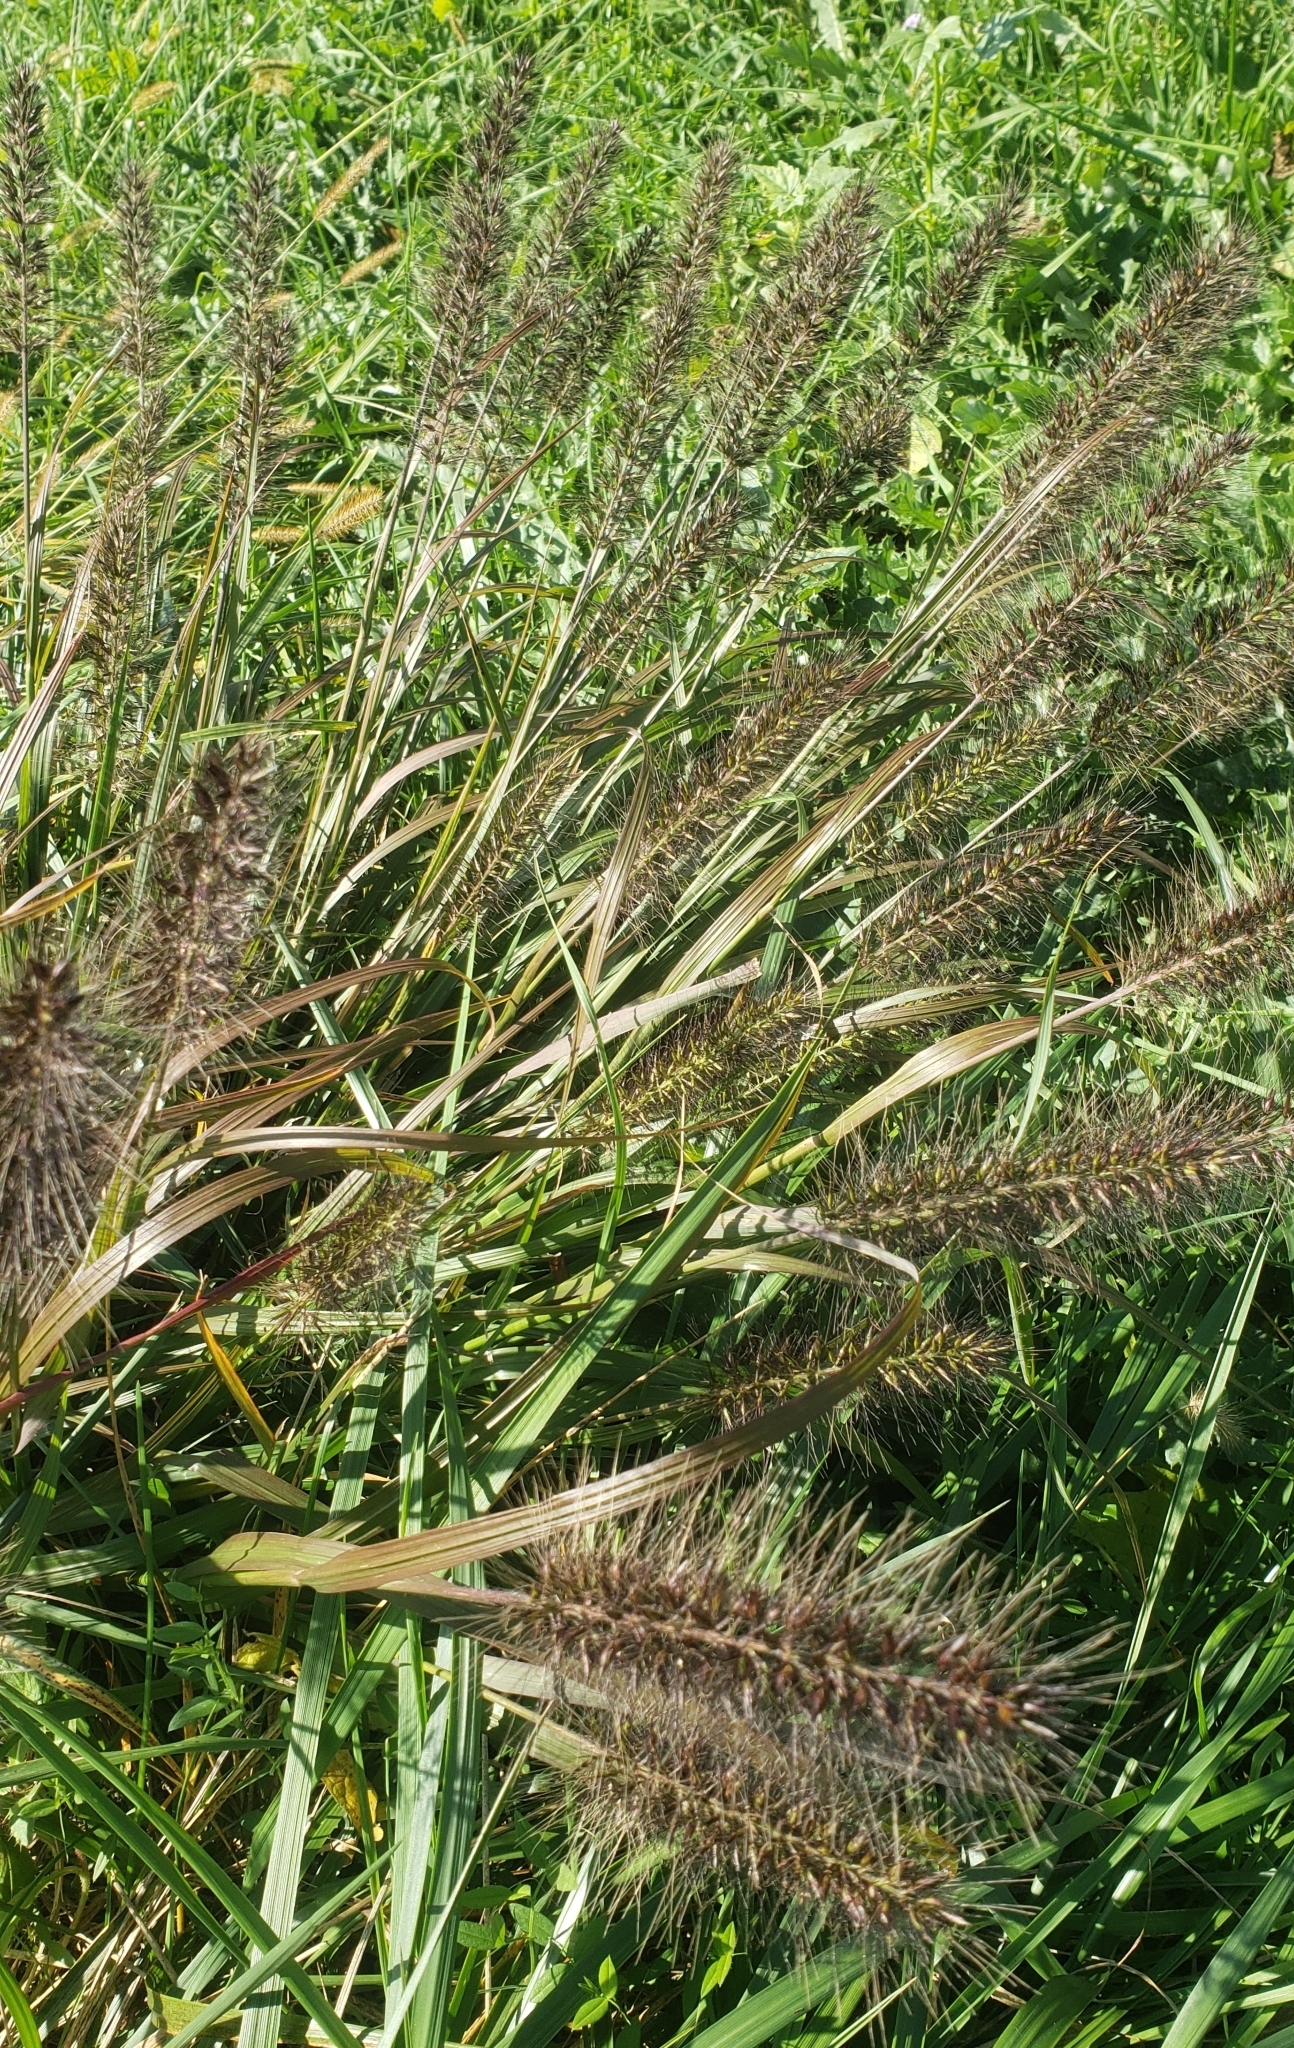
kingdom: Plantae
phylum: Tracheophyta
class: Liliopsida
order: Poales
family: Poaceae
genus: Cenchrus
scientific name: Cenchrus alopecuroides
